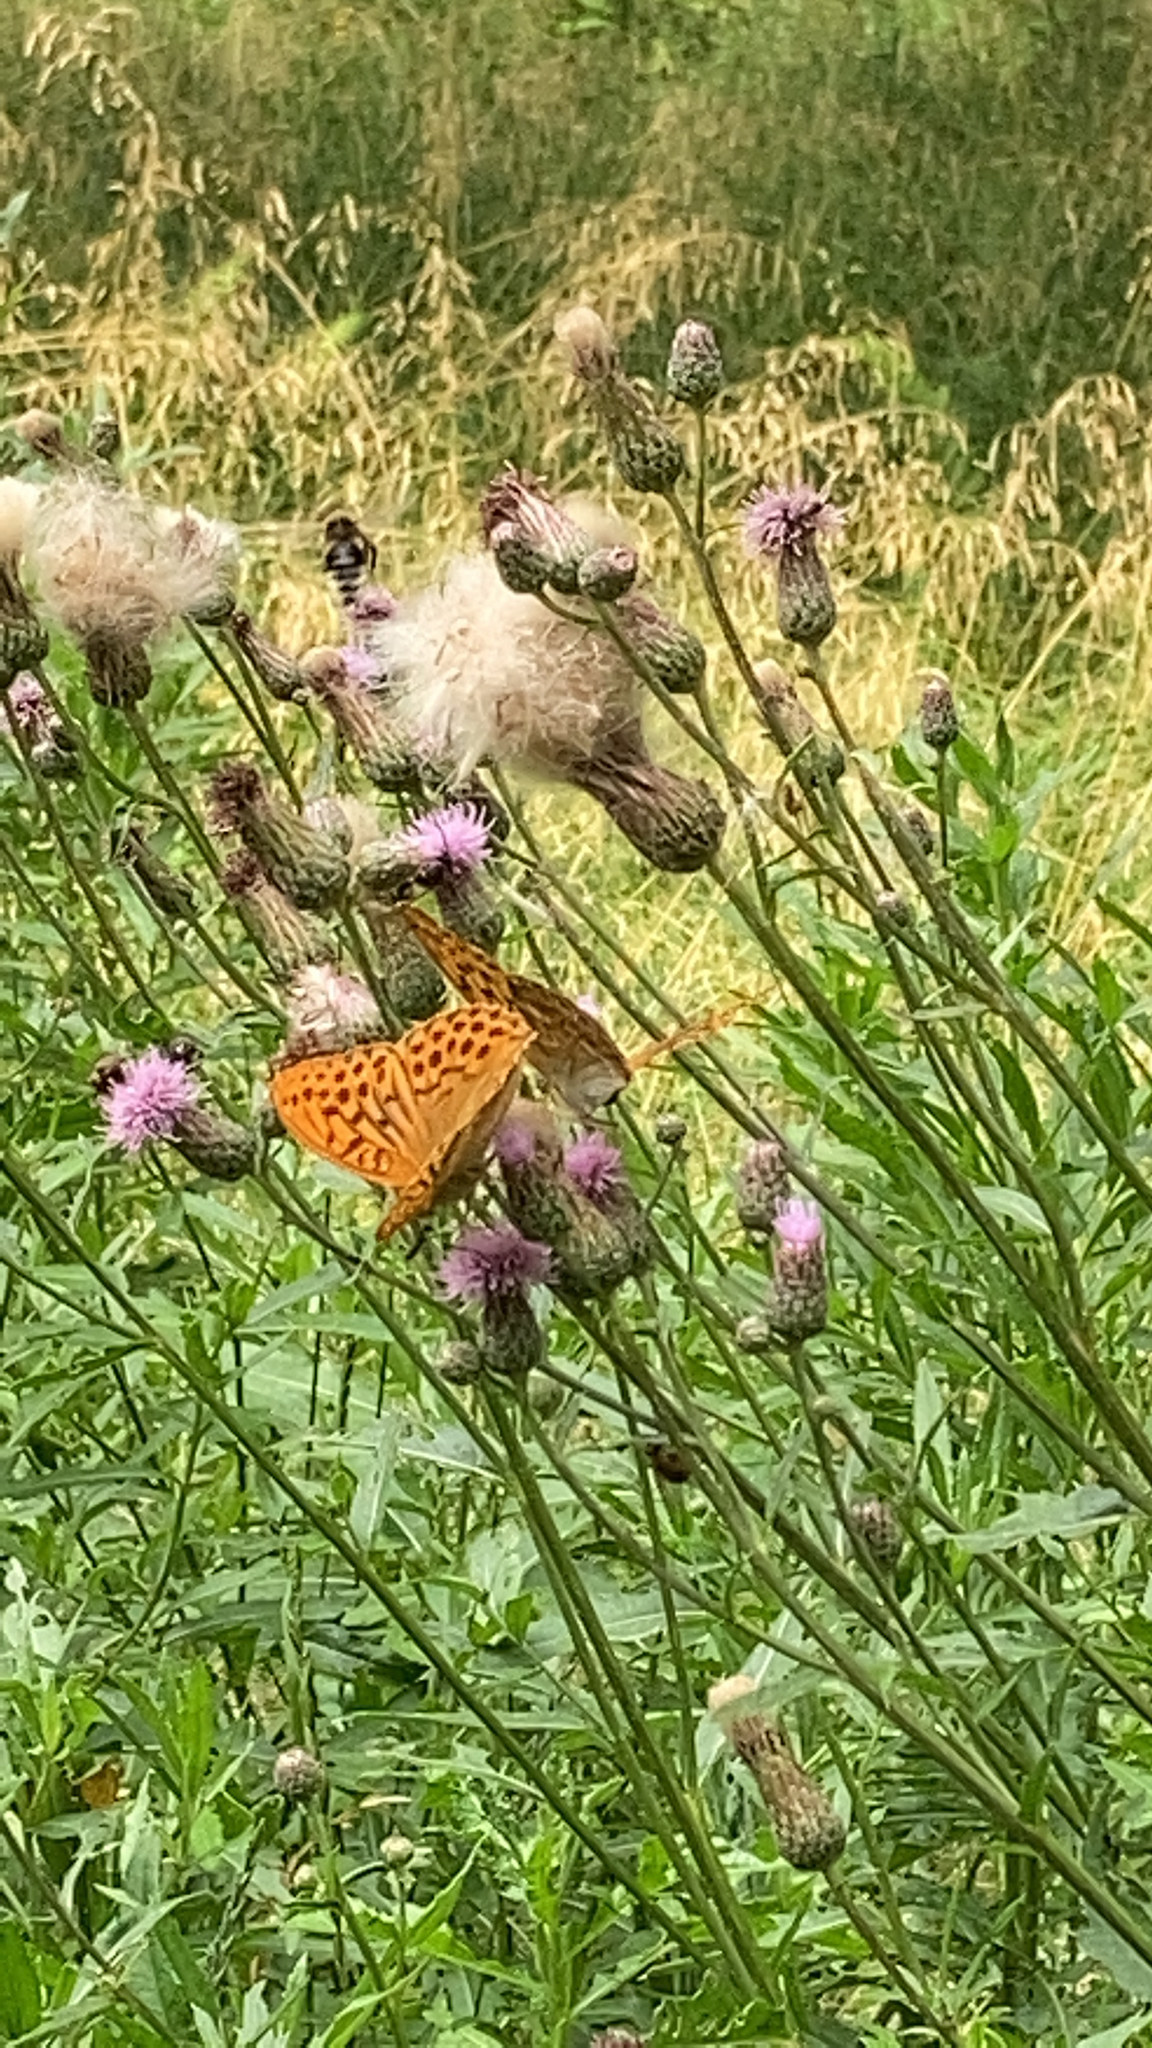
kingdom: Animalia
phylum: Arthropoda
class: Insecta
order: Lepidoptera
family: Nymphalidae
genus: Argynnis
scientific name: Argynnis paphia
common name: Silver-washed fritillary
